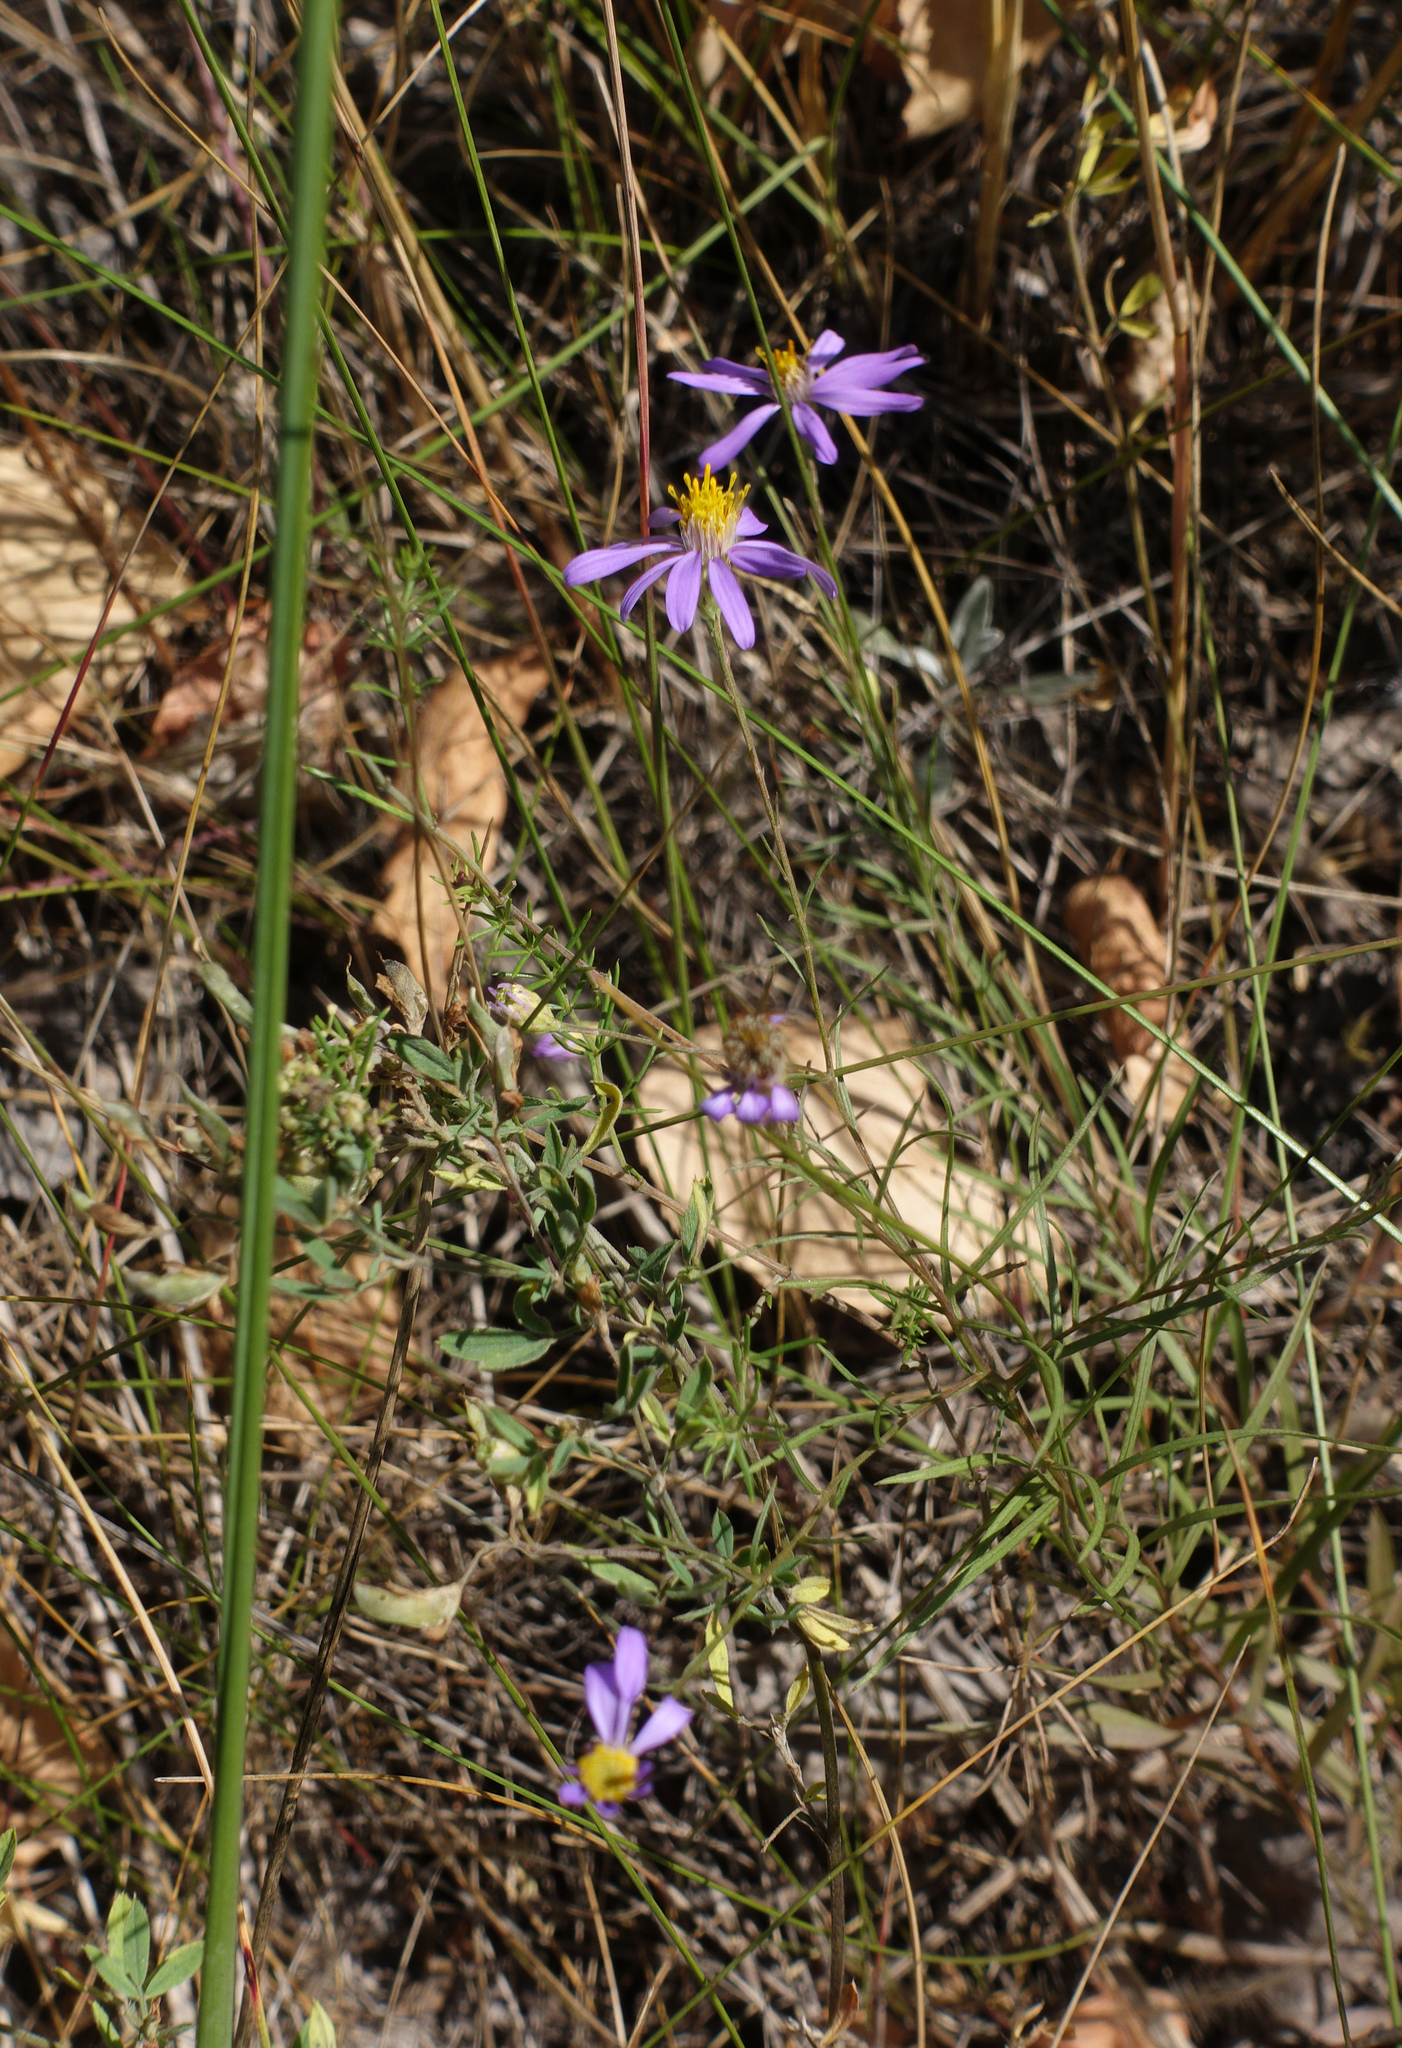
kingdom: Plantae
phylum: Tracheophyta
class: Magnoliopsida
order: Asterales
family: Asteraceae
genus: Galatella
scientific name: Galatella angustissima
